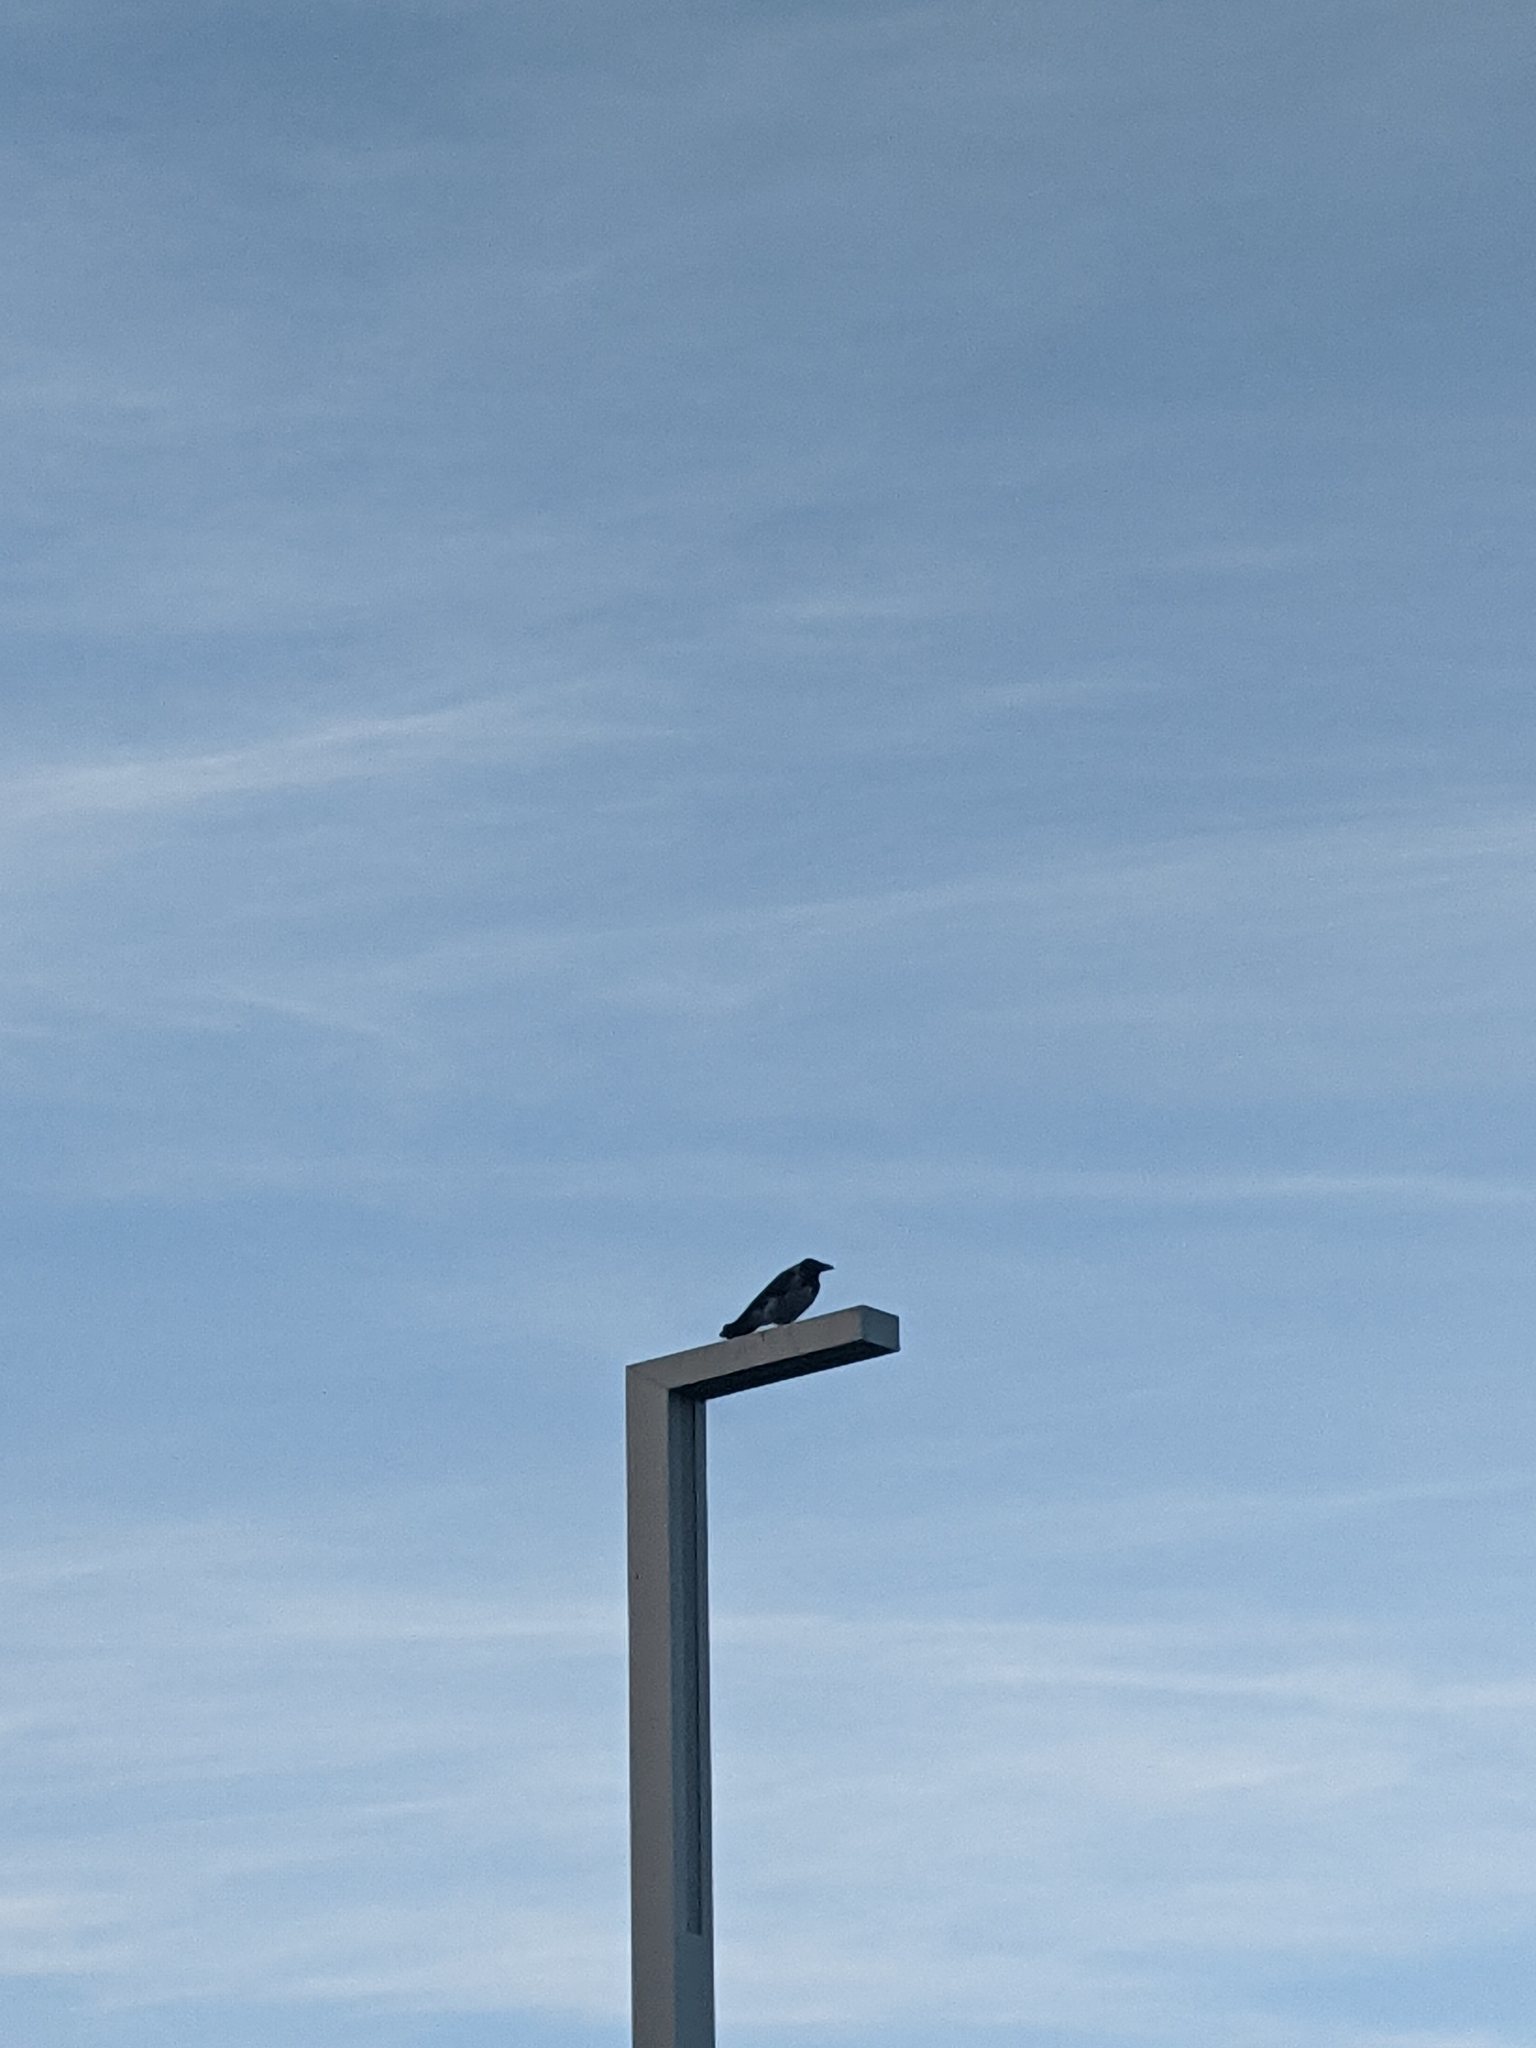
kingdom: Animalia
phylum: Chordata
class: Aves
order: Passeriformes
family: Corvidae
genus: Corvus
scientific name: Corvus cornix
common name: Hooded crow
